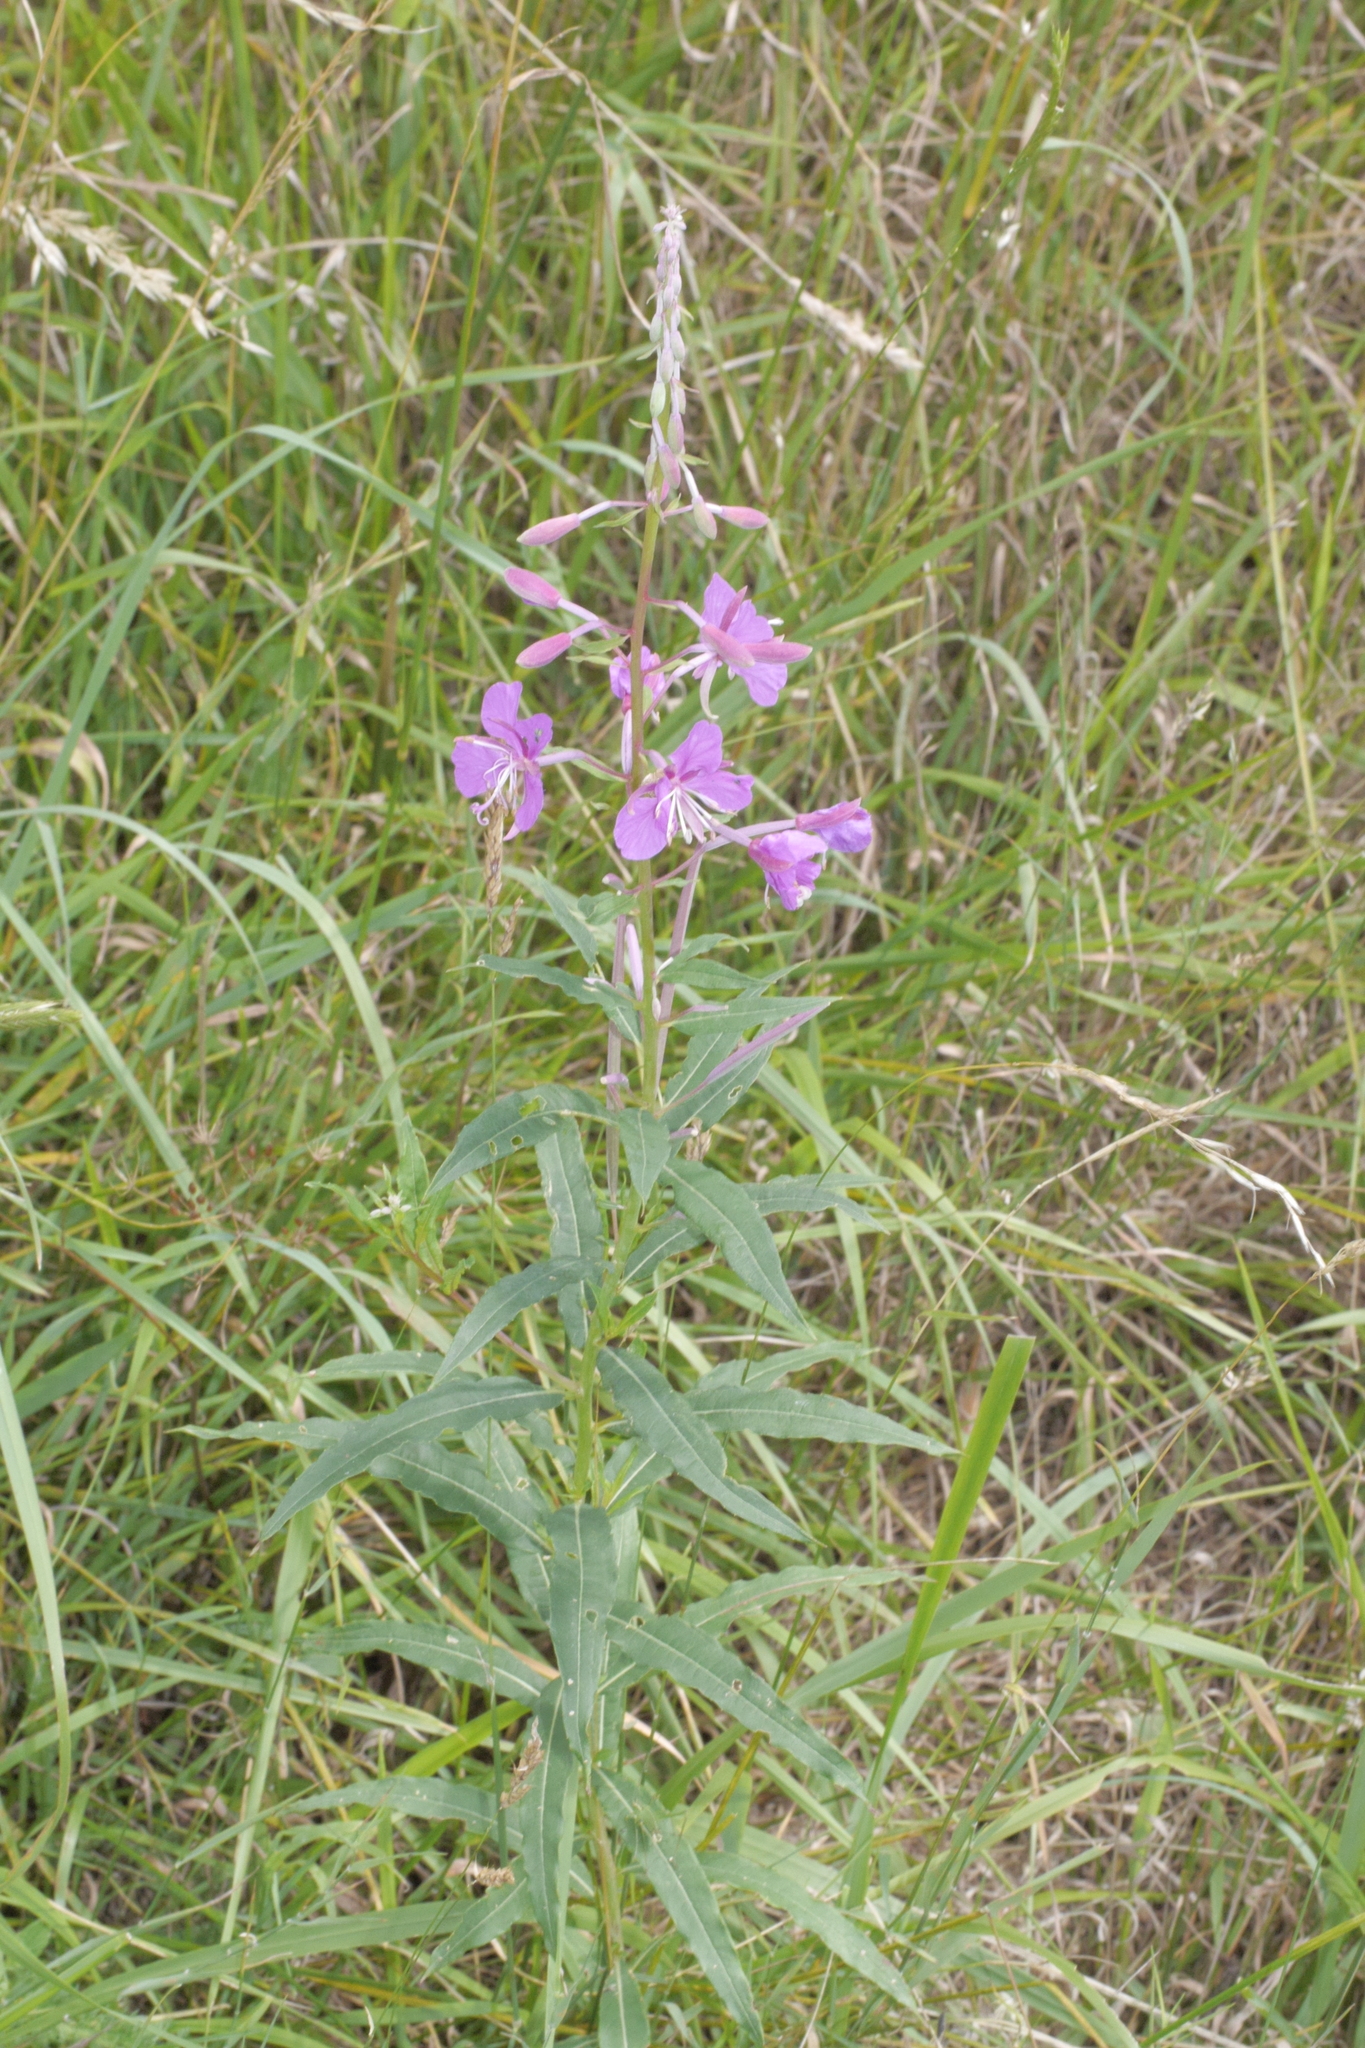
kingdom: Plantae
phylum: Tracheophyta
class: Magnoliopsida
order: Myrtales
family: Onagraceae
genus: Chamaenerion
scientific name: Chamaenerion angustifolium
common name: Fireweed
